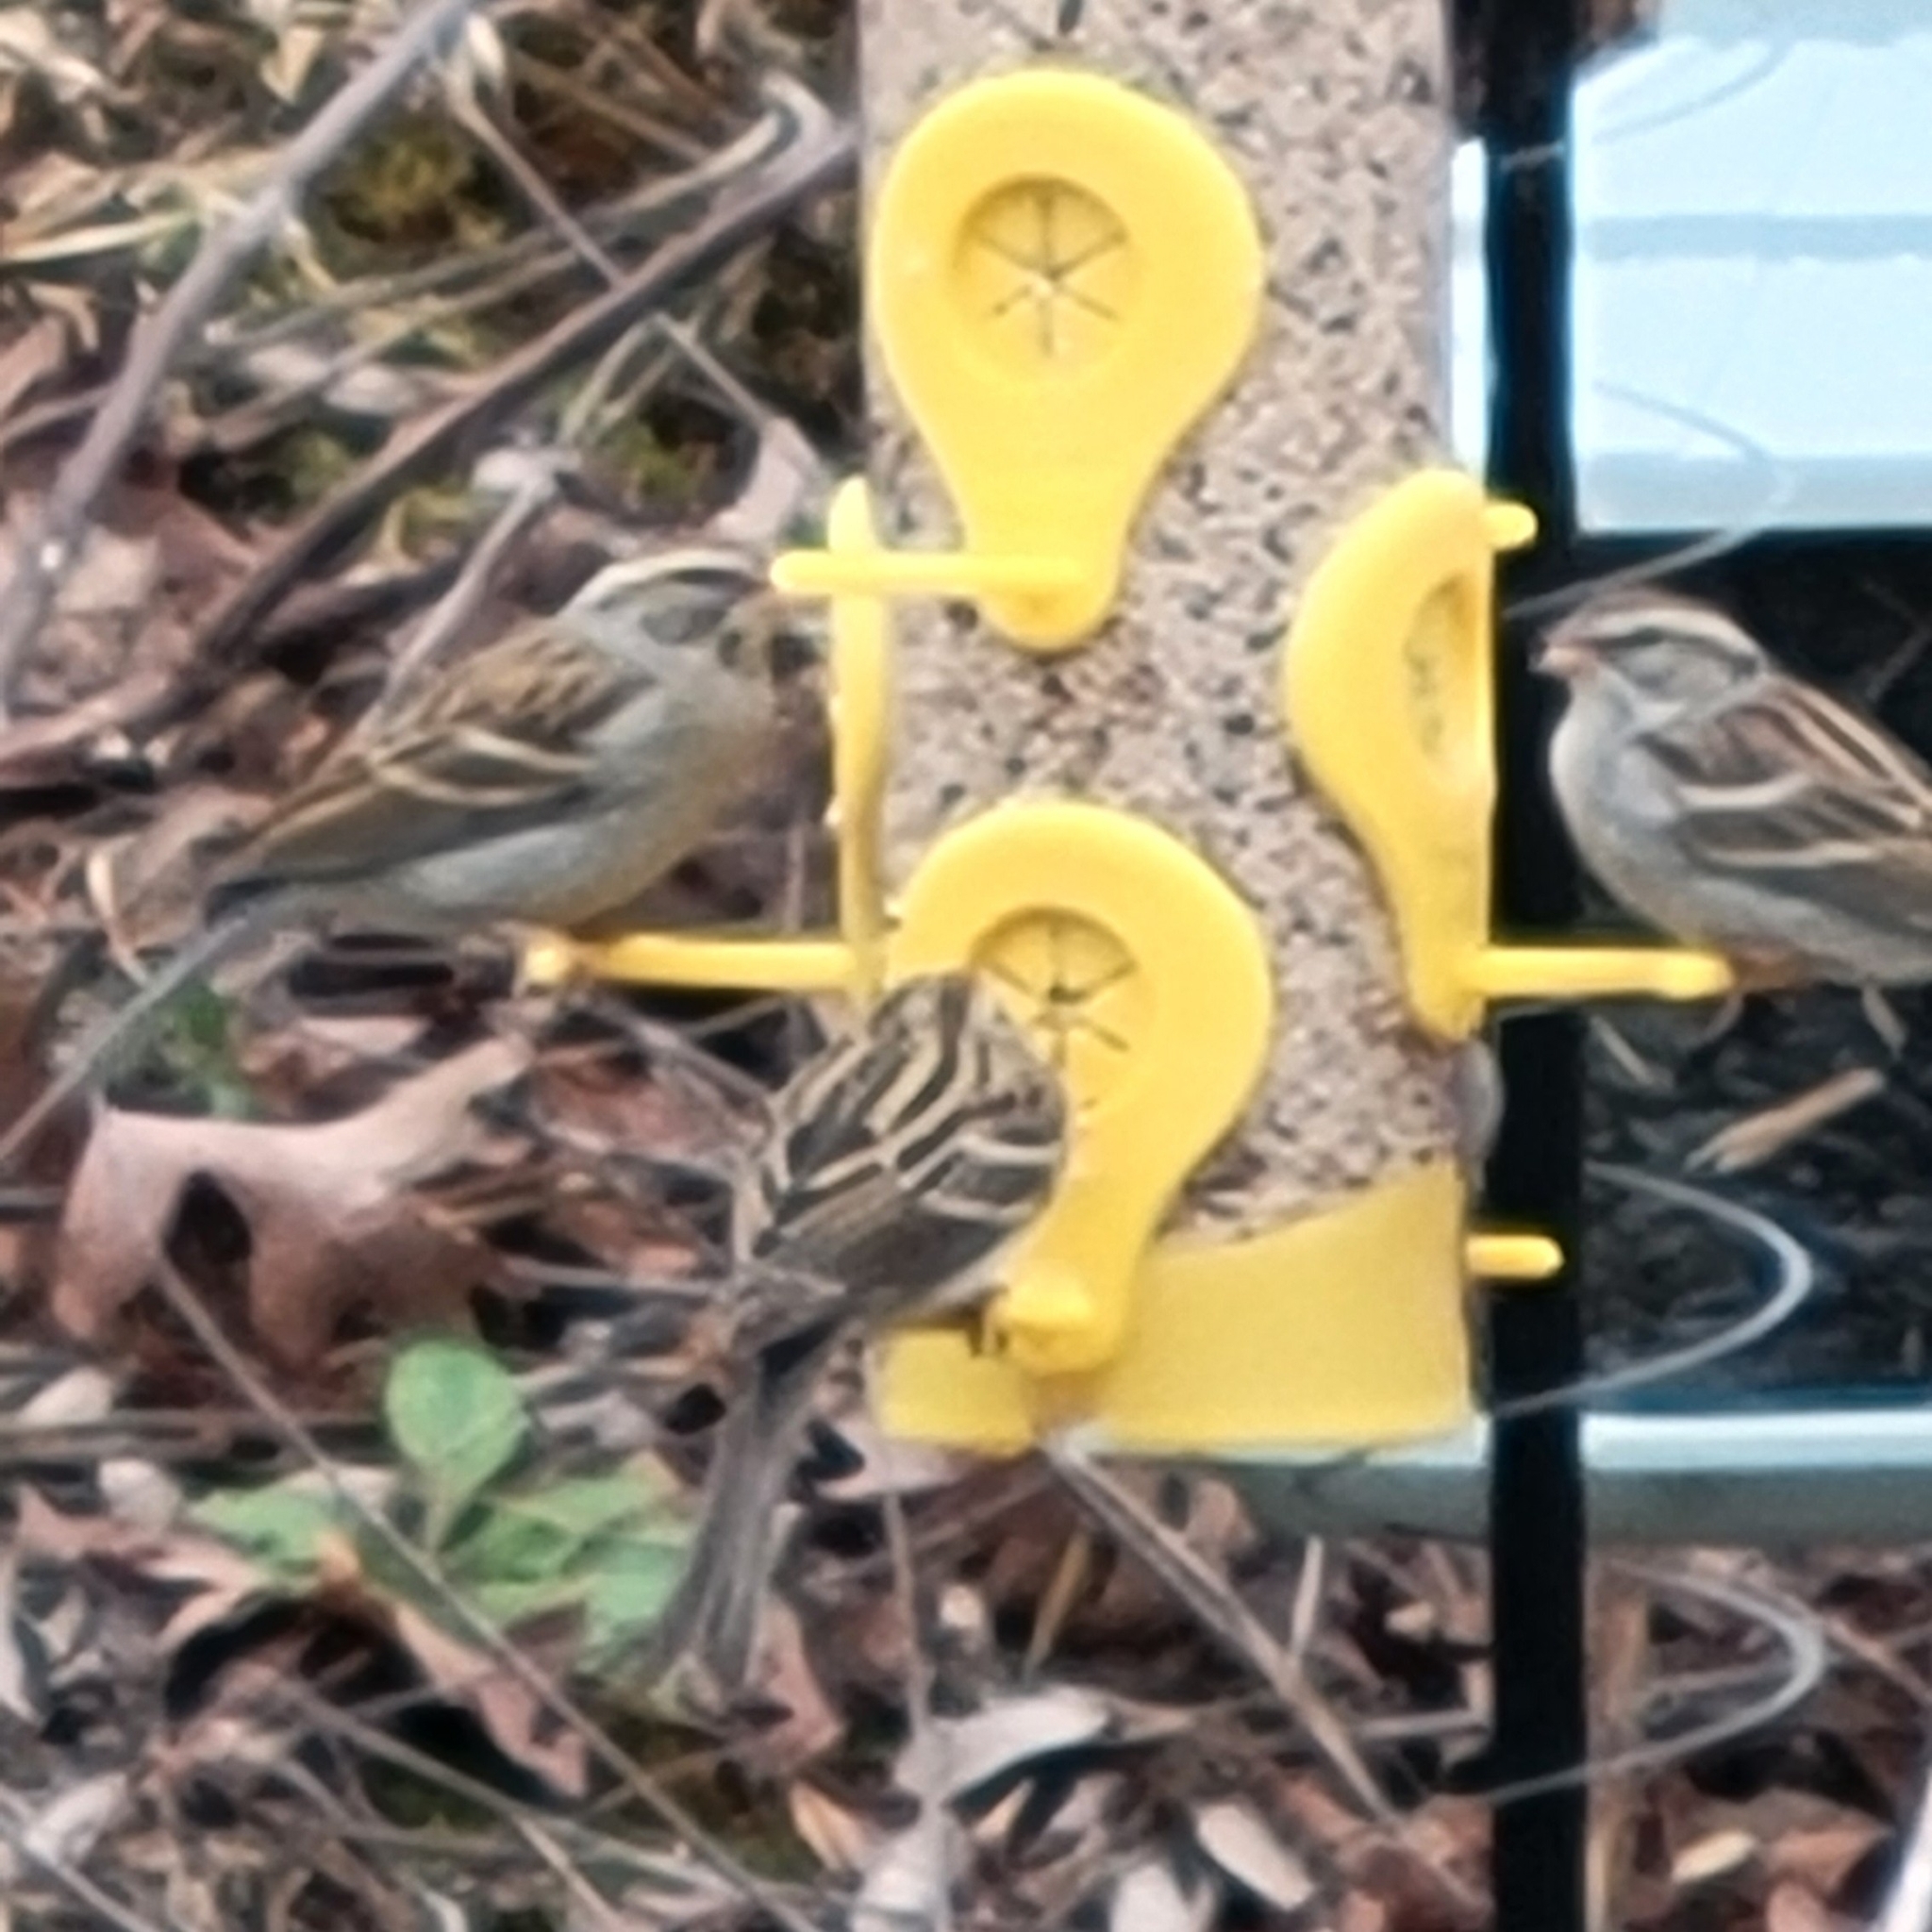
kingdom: Animalia
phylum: Chordata
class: Aves
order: Passeriformes
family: Passerellidae
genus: Spizella
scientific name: Spizella passerina
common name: Chipping sparrow
